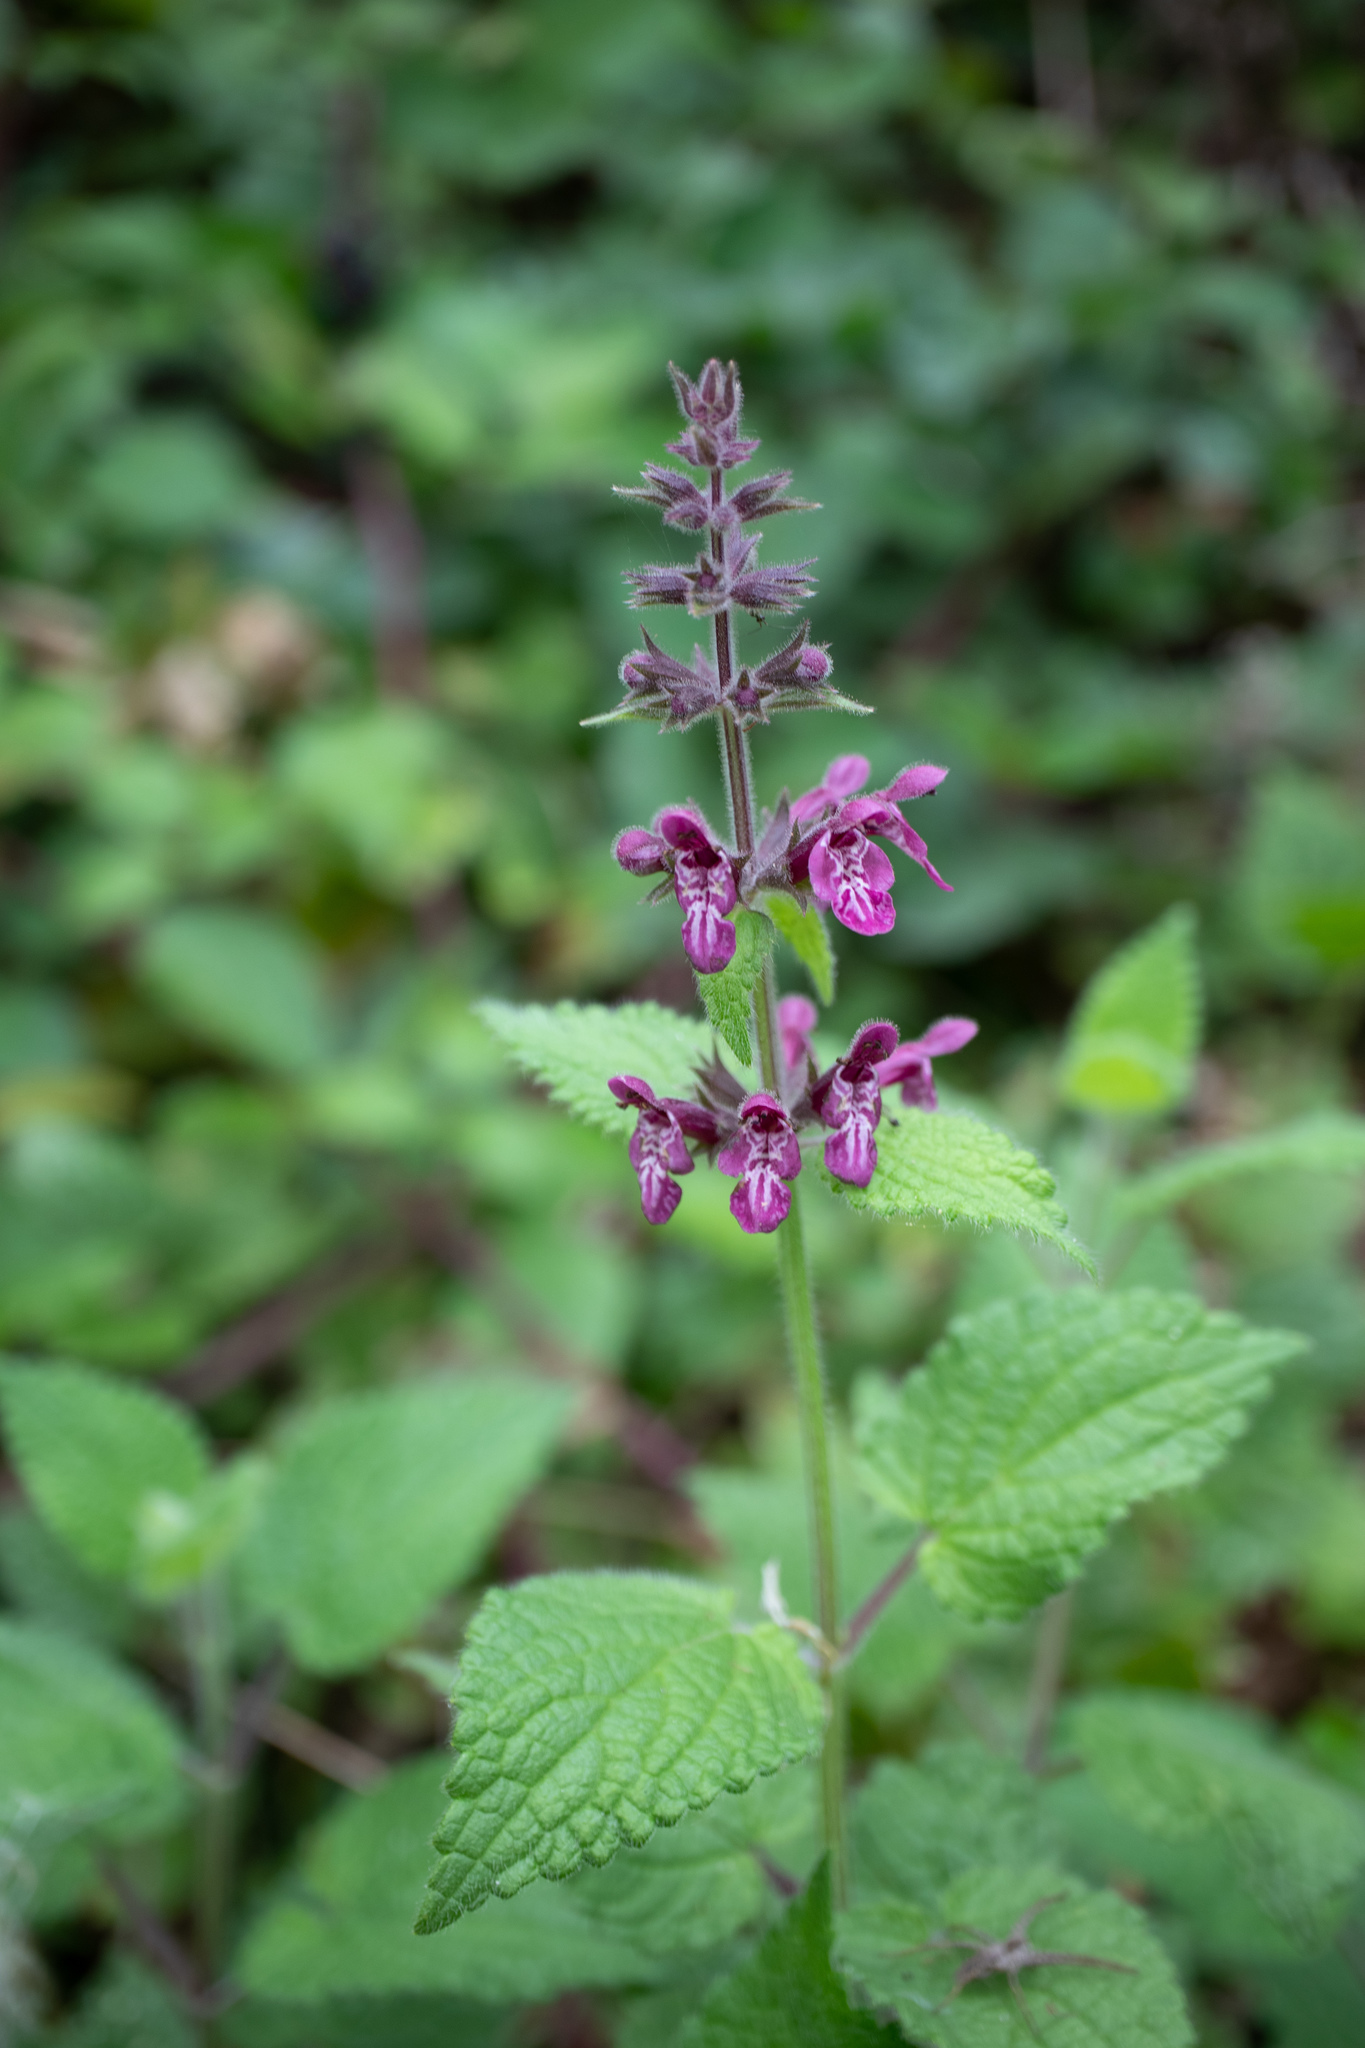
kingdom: Plantae
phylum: Tracheophyta
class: Magnoliopsida
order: Lamiales
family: Lamiaceae
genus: Stachys
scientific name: Stachys sylvatica
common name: Hedge woundwort
